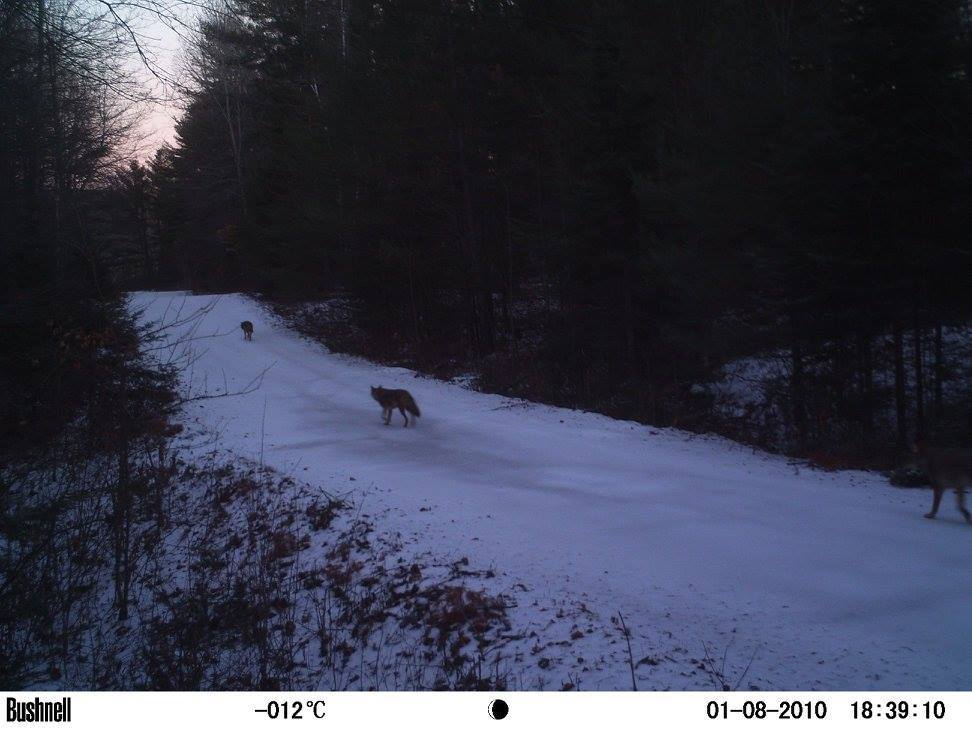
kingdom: Animalia
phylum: Chordata
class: Mammalia
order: Carnivora
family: Canidae
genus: Canis
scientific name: Canis lycaon
